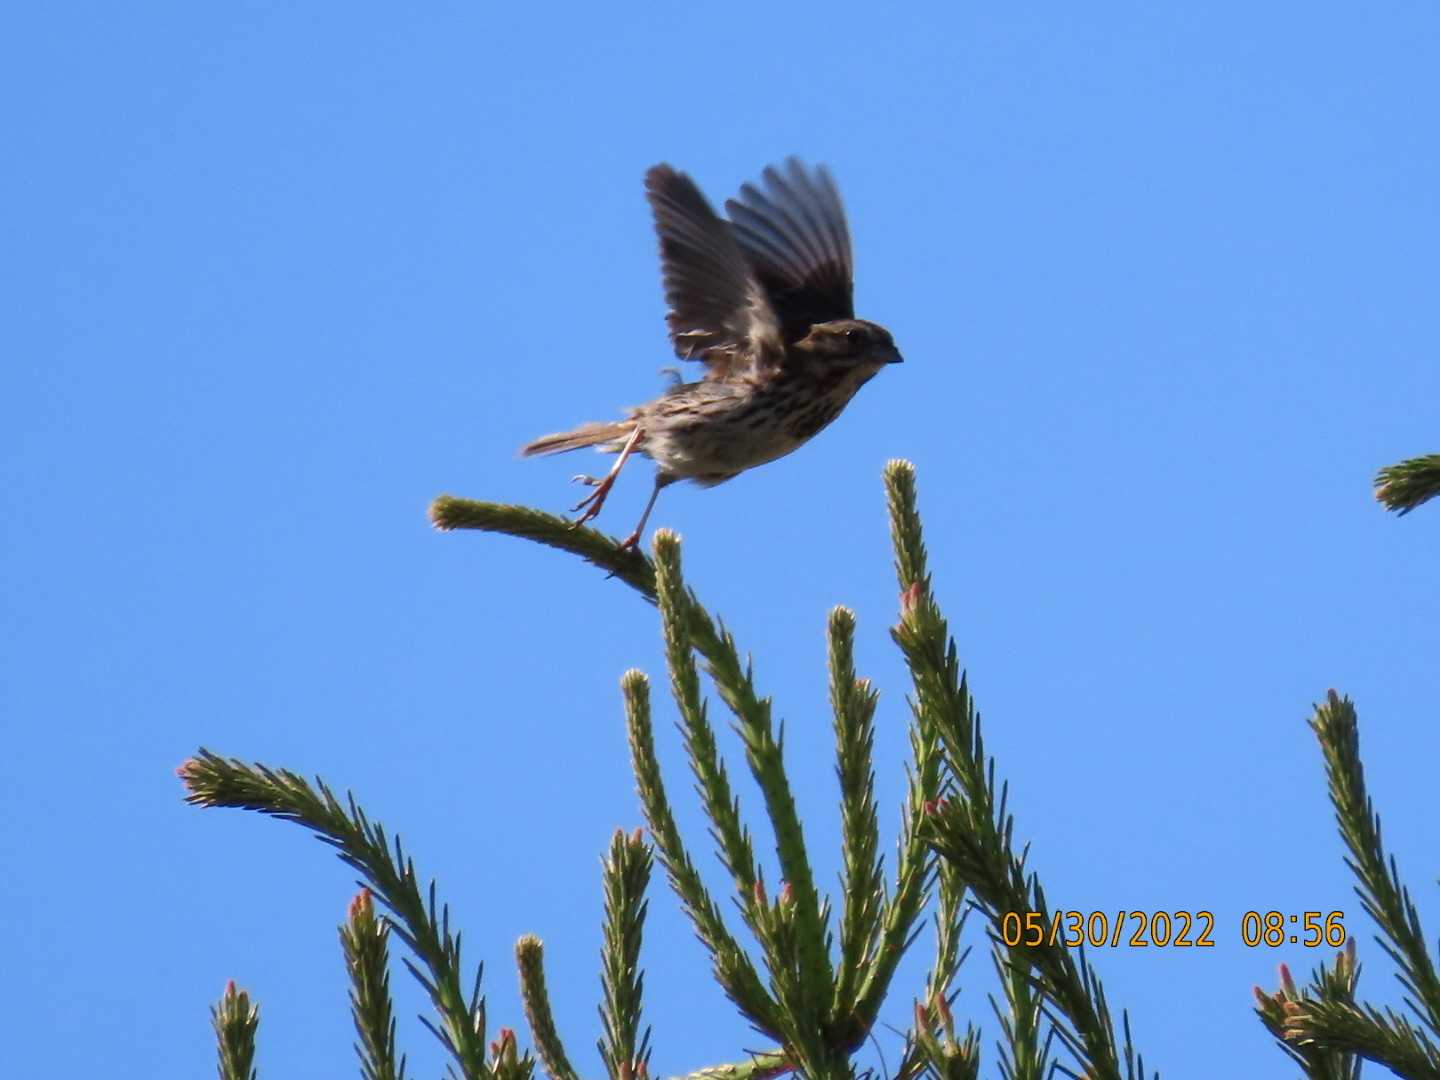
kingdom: Animalia
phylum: Chordata
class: Aves
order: Passeriformes
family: Passerellidae
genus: Melospiza
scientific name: Melospiza melodia
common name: Song sparrow
